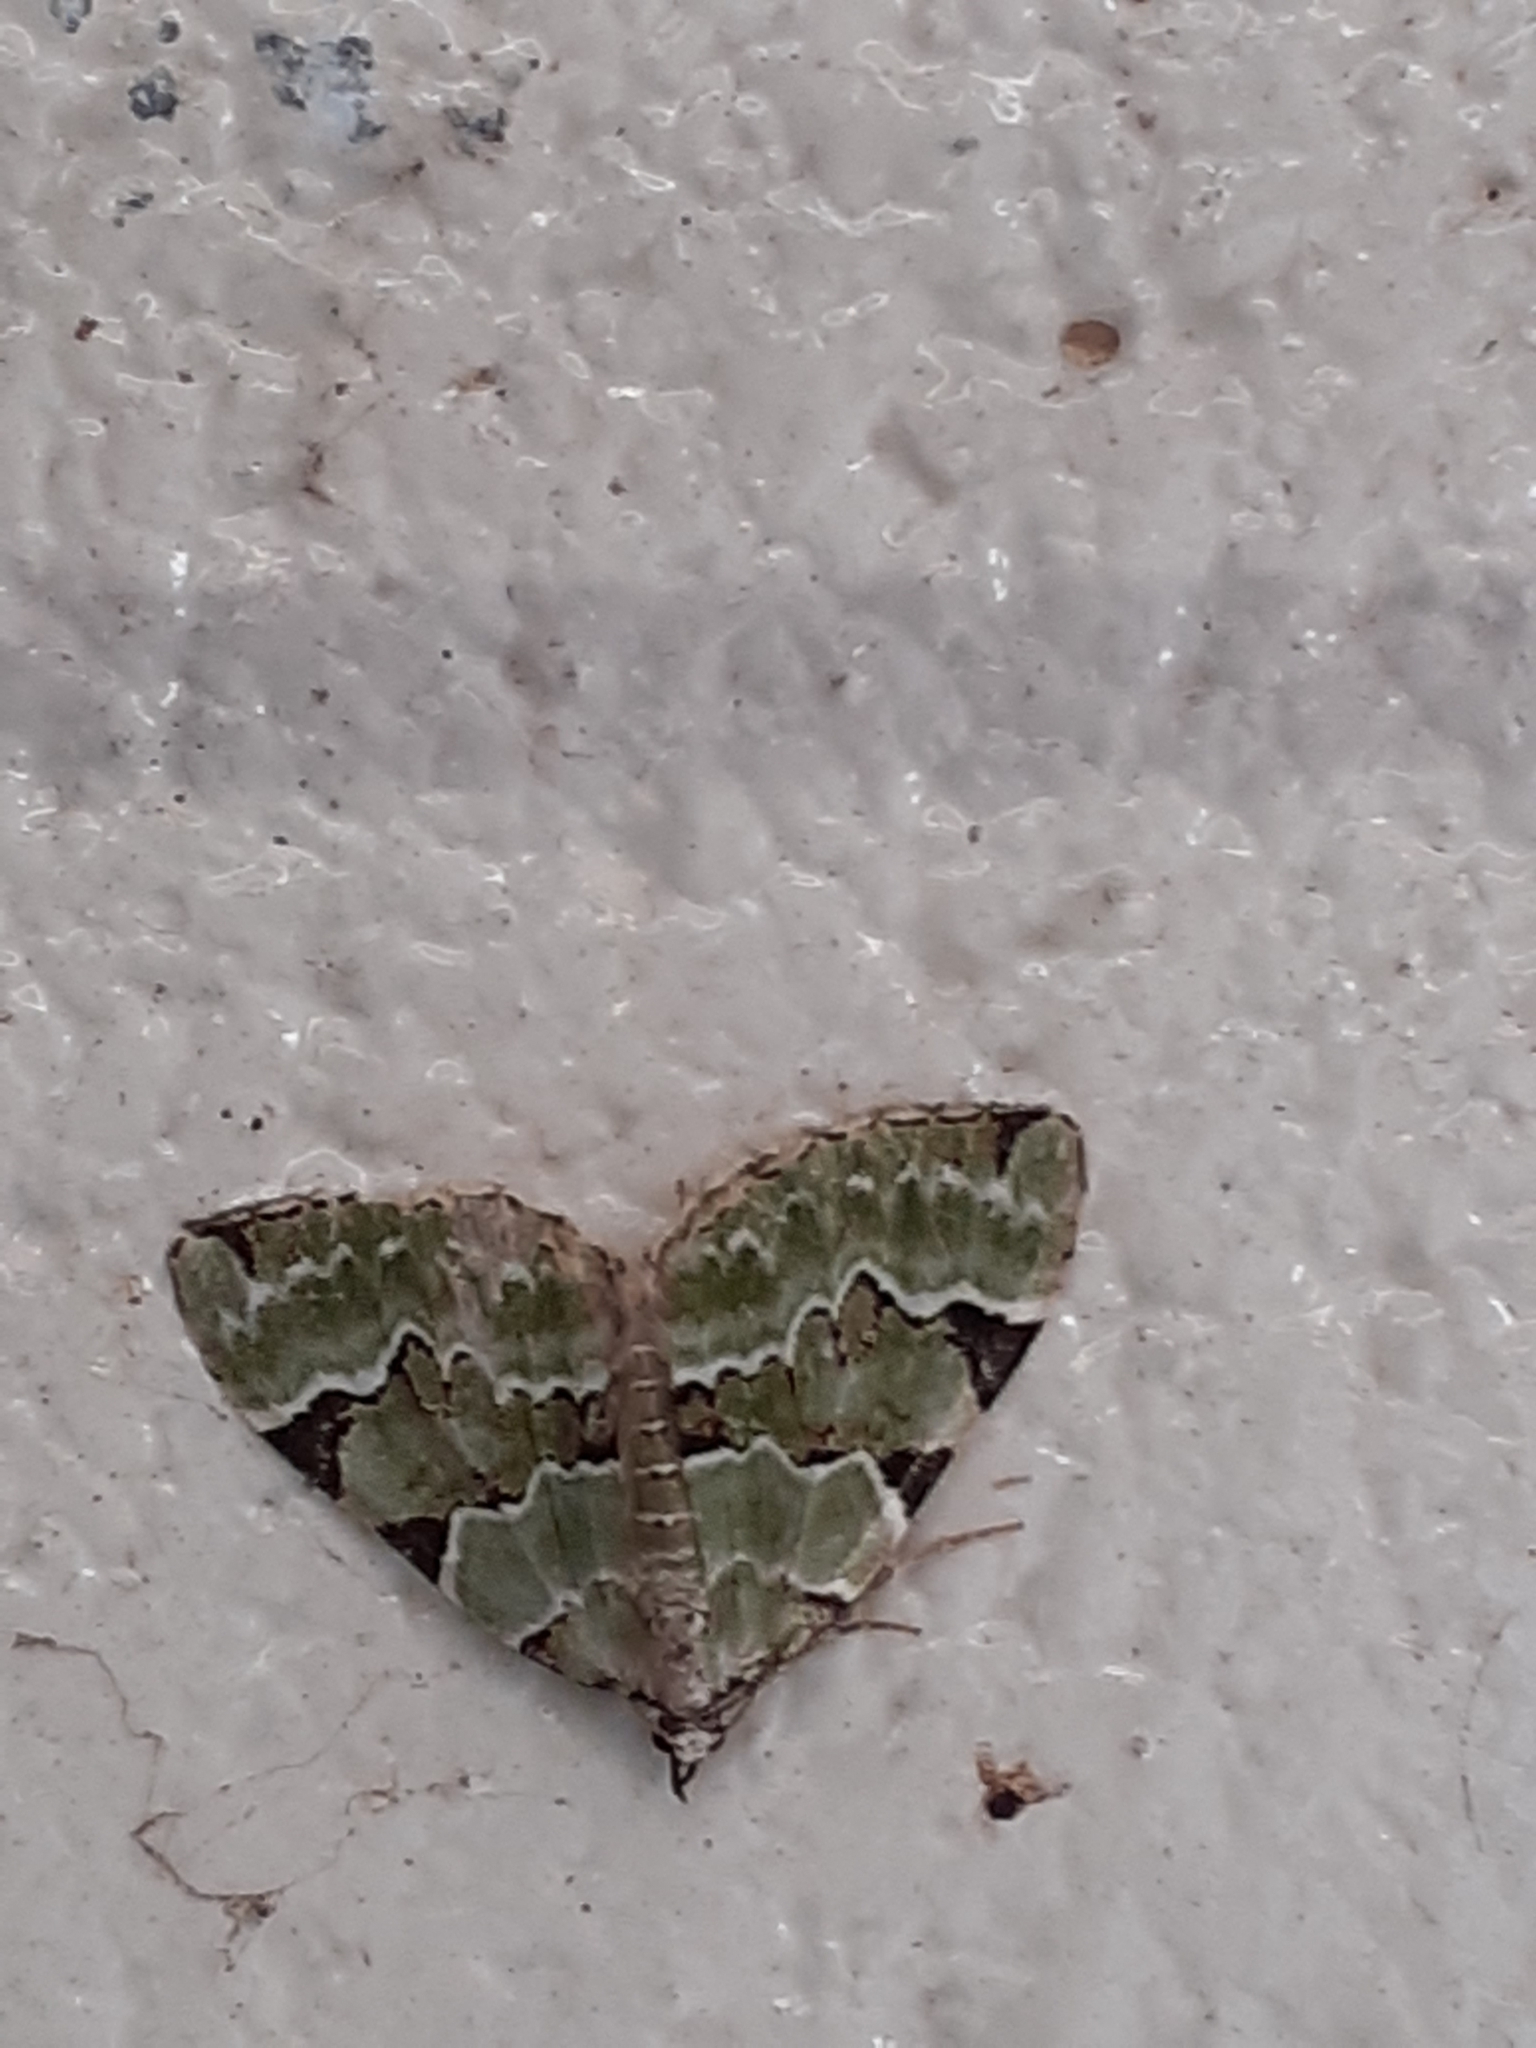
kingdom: Animalia
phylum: Arthropoda
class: Insecta
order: Lepidoptera
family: Geometridae
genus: Colostygia
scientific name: Colostygia pectinataria
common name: Green carpet
